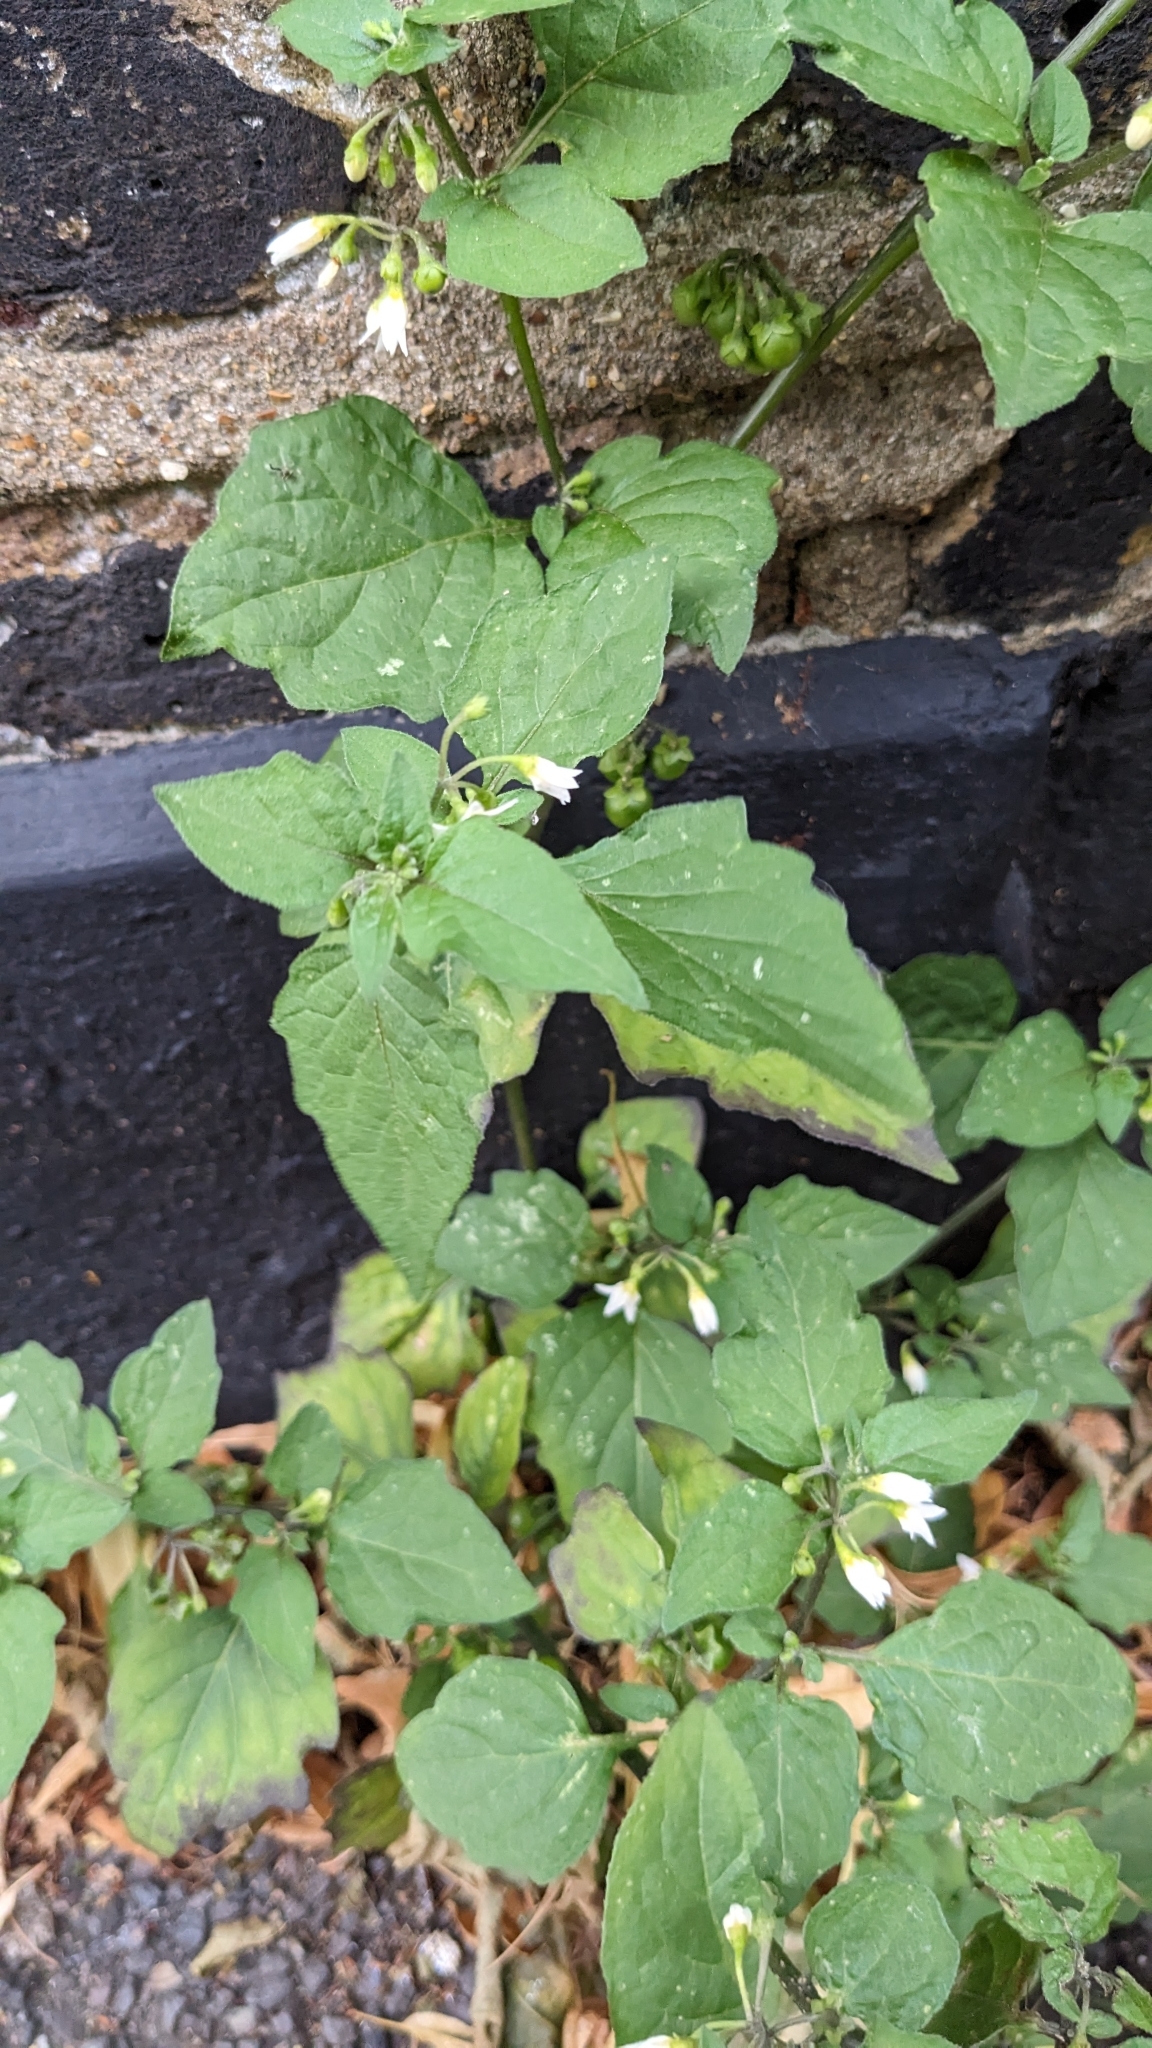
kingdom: Plantae
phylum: Tracheophyta
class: Magnoliopsida
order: Solanales
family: Solanaceae
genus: Solanum
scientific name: Solanum nigrum
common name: Black nightshade
